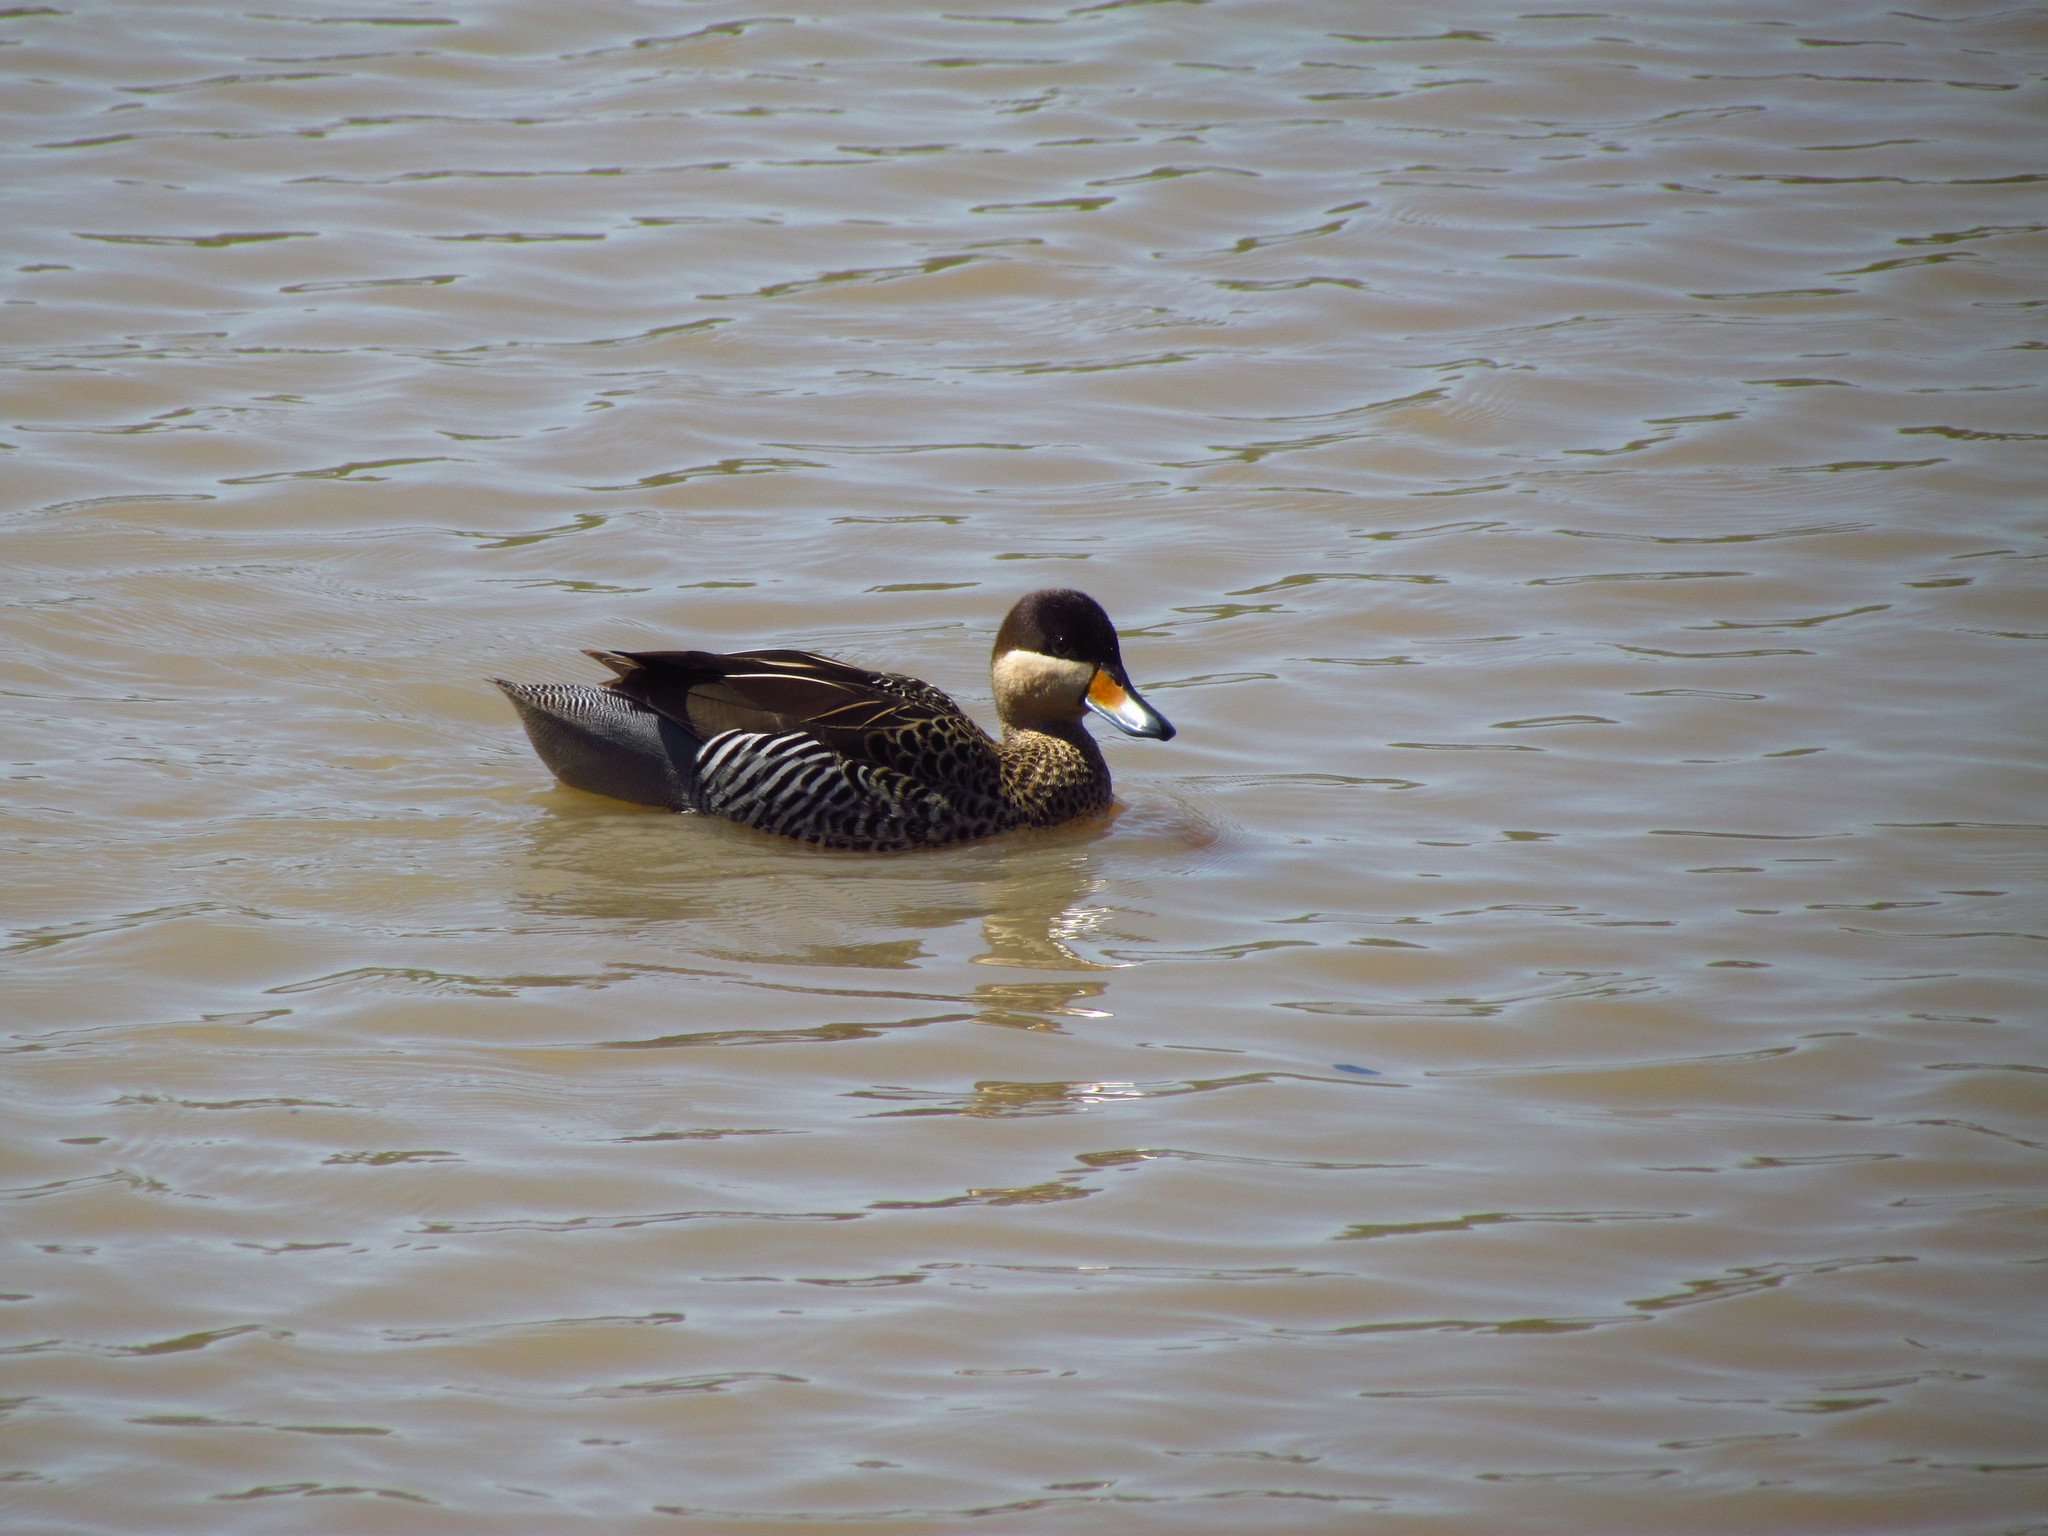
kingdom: Animalia
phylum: Chordata
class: Aves
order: Anseriformes
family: Anatidae
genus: Spatula
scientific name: Spatula versicolor
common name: Silver teal
